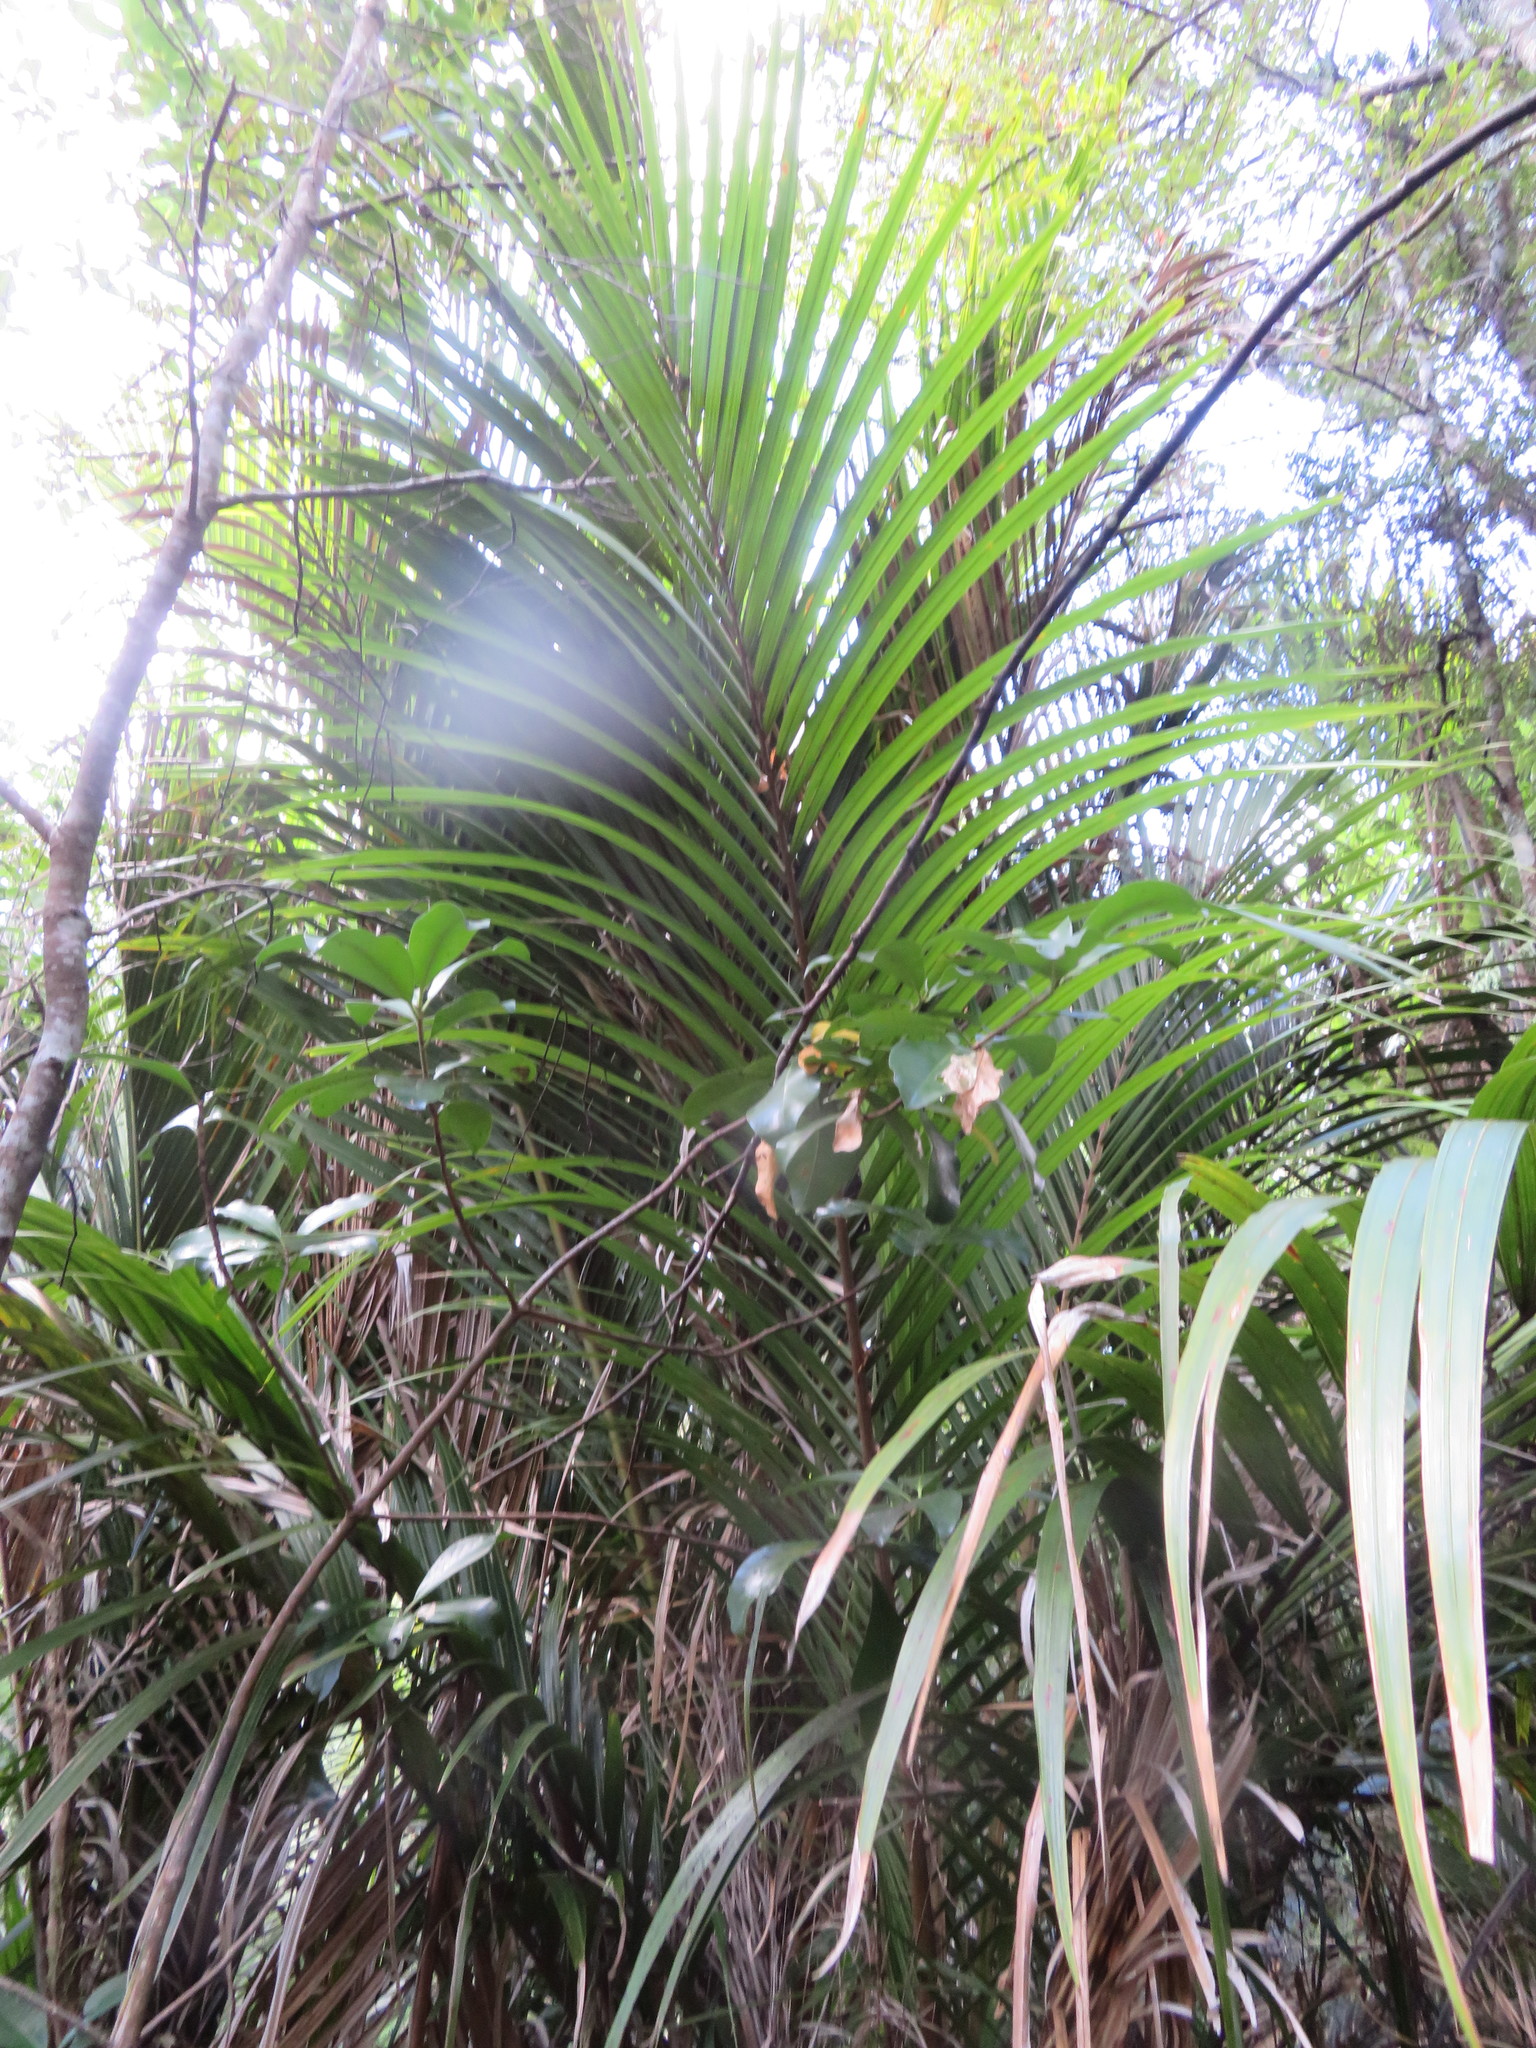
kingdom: Plantae
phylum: Tracheophyta
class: Liliopsida
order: Arecales
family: Arecaceae
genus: Rhopalostylis
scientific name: Rhopalostylis sapida
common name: Feather-duster palm
